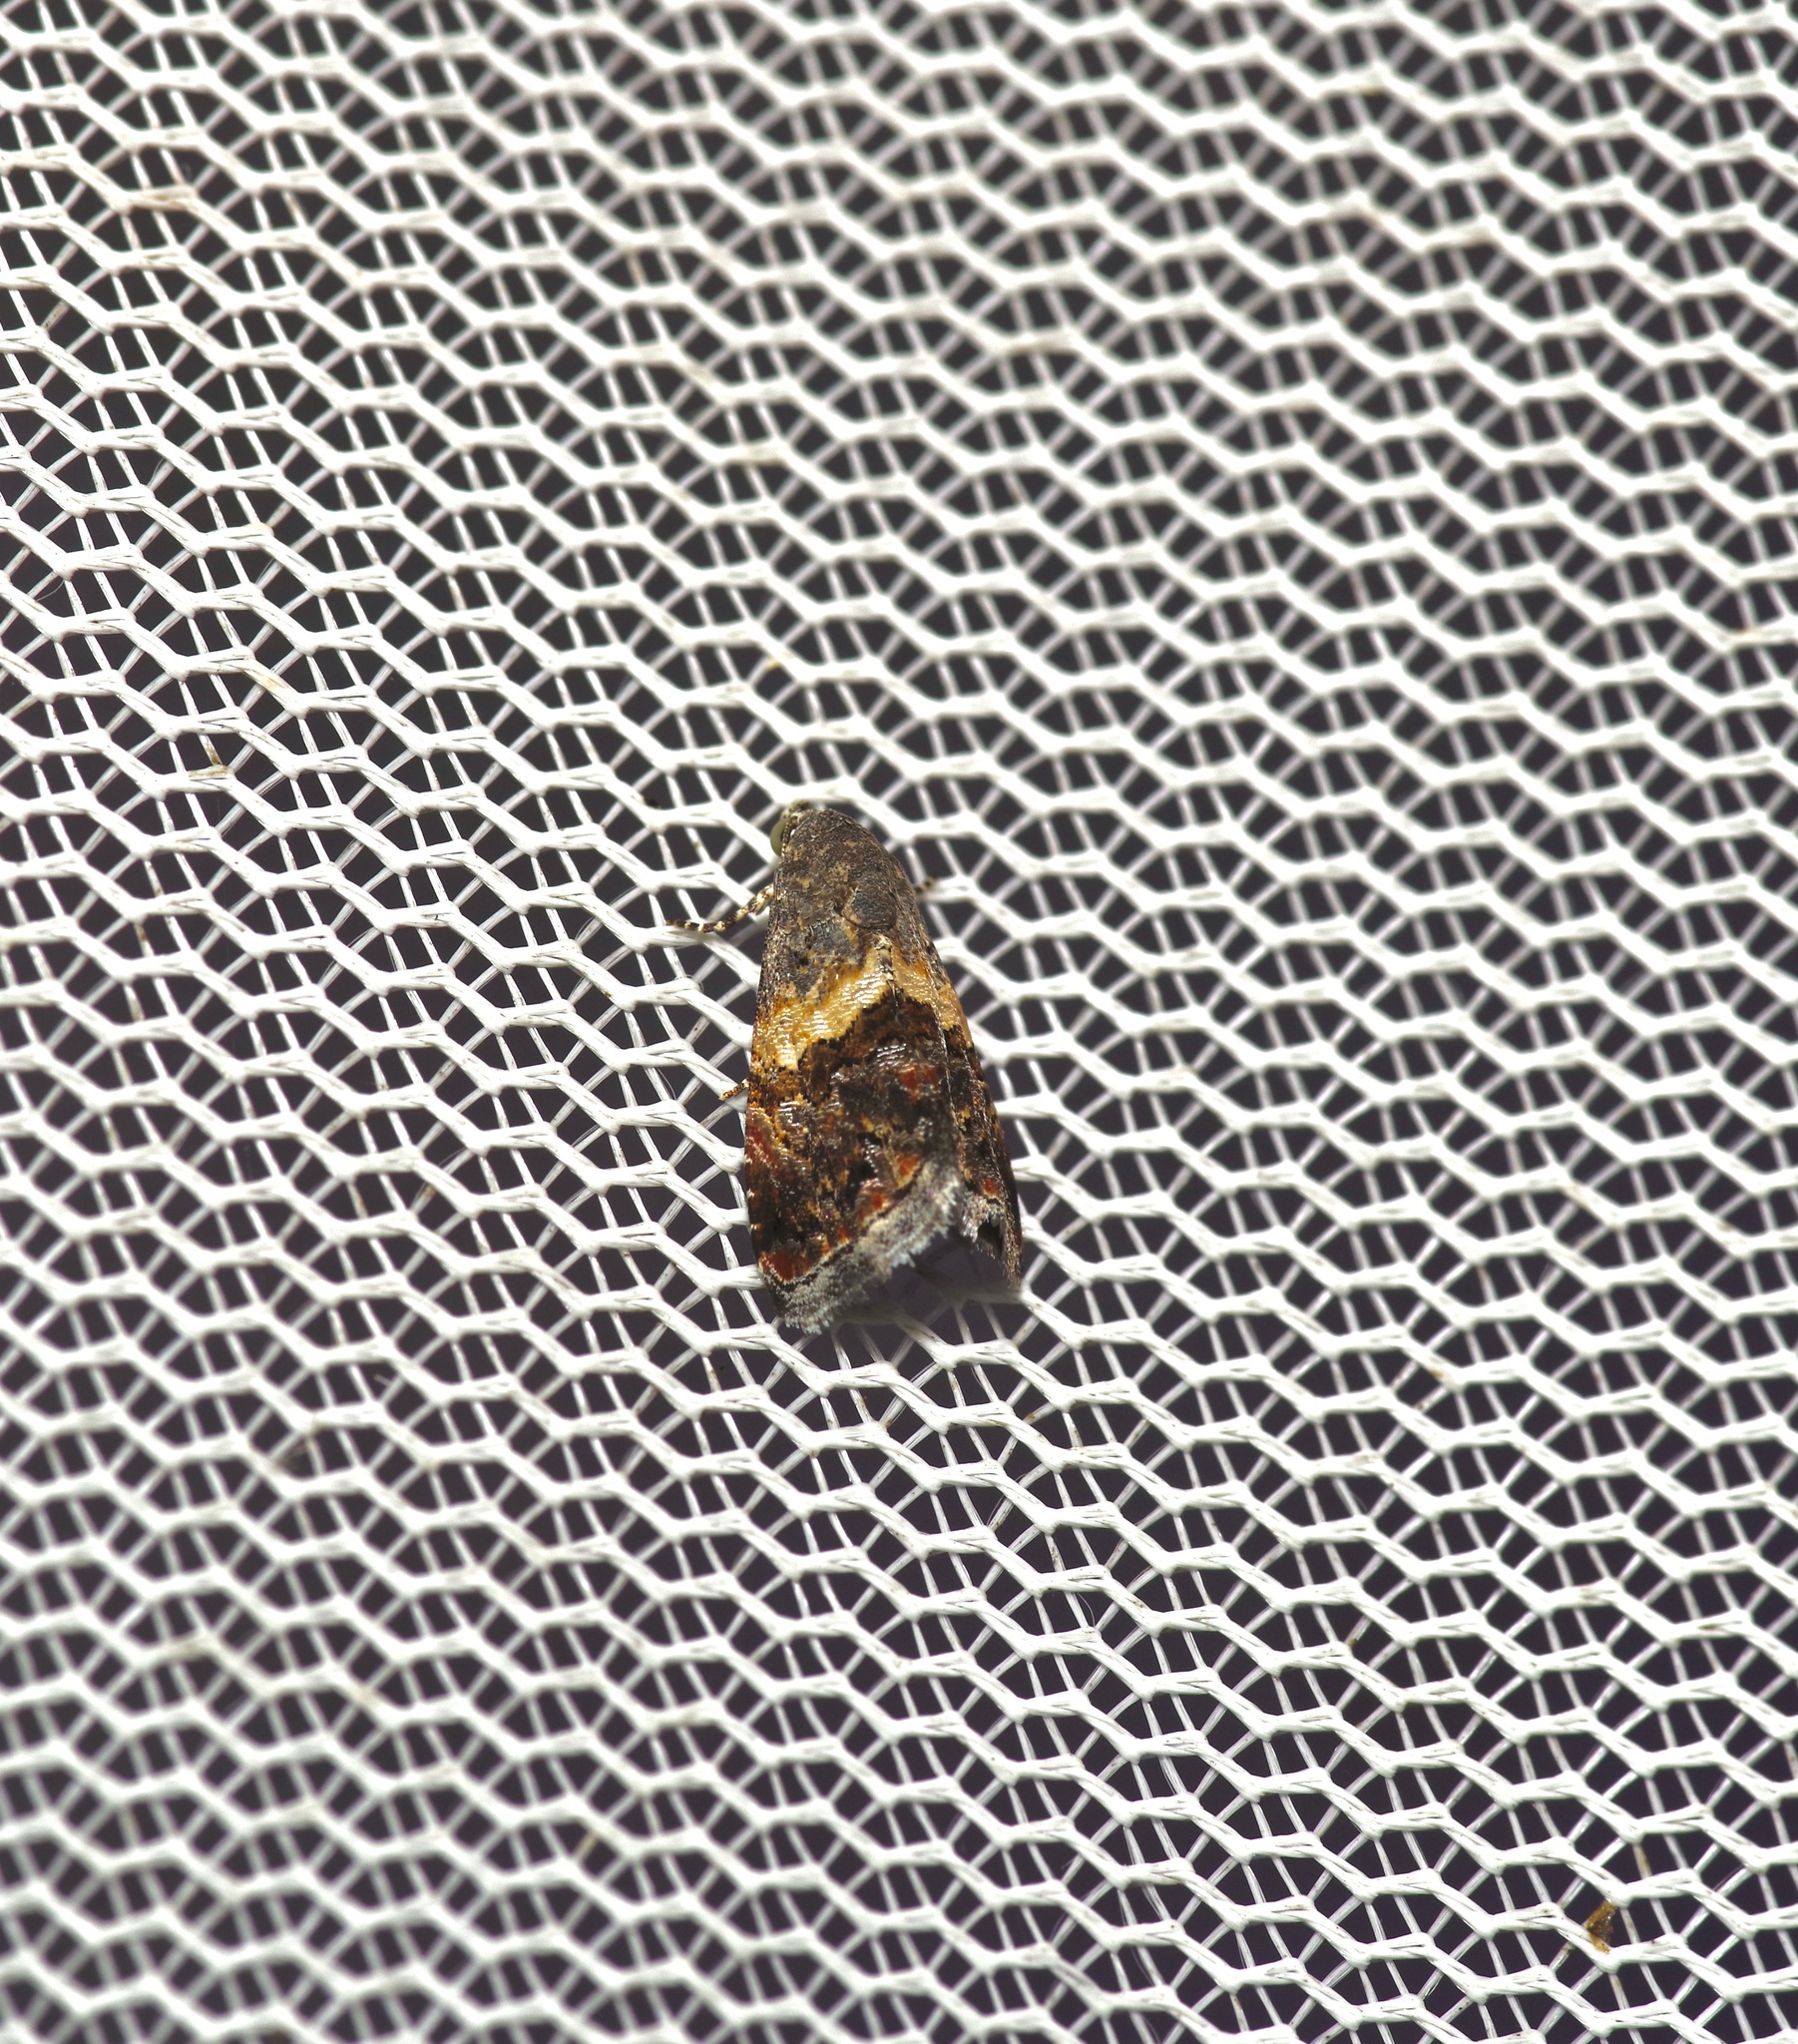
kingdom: Animalia
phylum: Arthropoda
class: Insecta
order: Lepidoptera
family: Noctuidae
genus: Tripudia
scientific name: Tripudia flavofasciata
